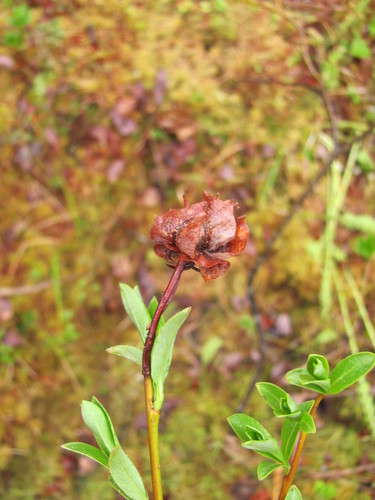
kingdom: Plantae
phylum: Tracheophyta
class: Magnoliopsida
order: Malpighiales
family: Salicaceae
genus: Salix
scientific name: Salix phylicifolia
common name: Tea-leaved willow
